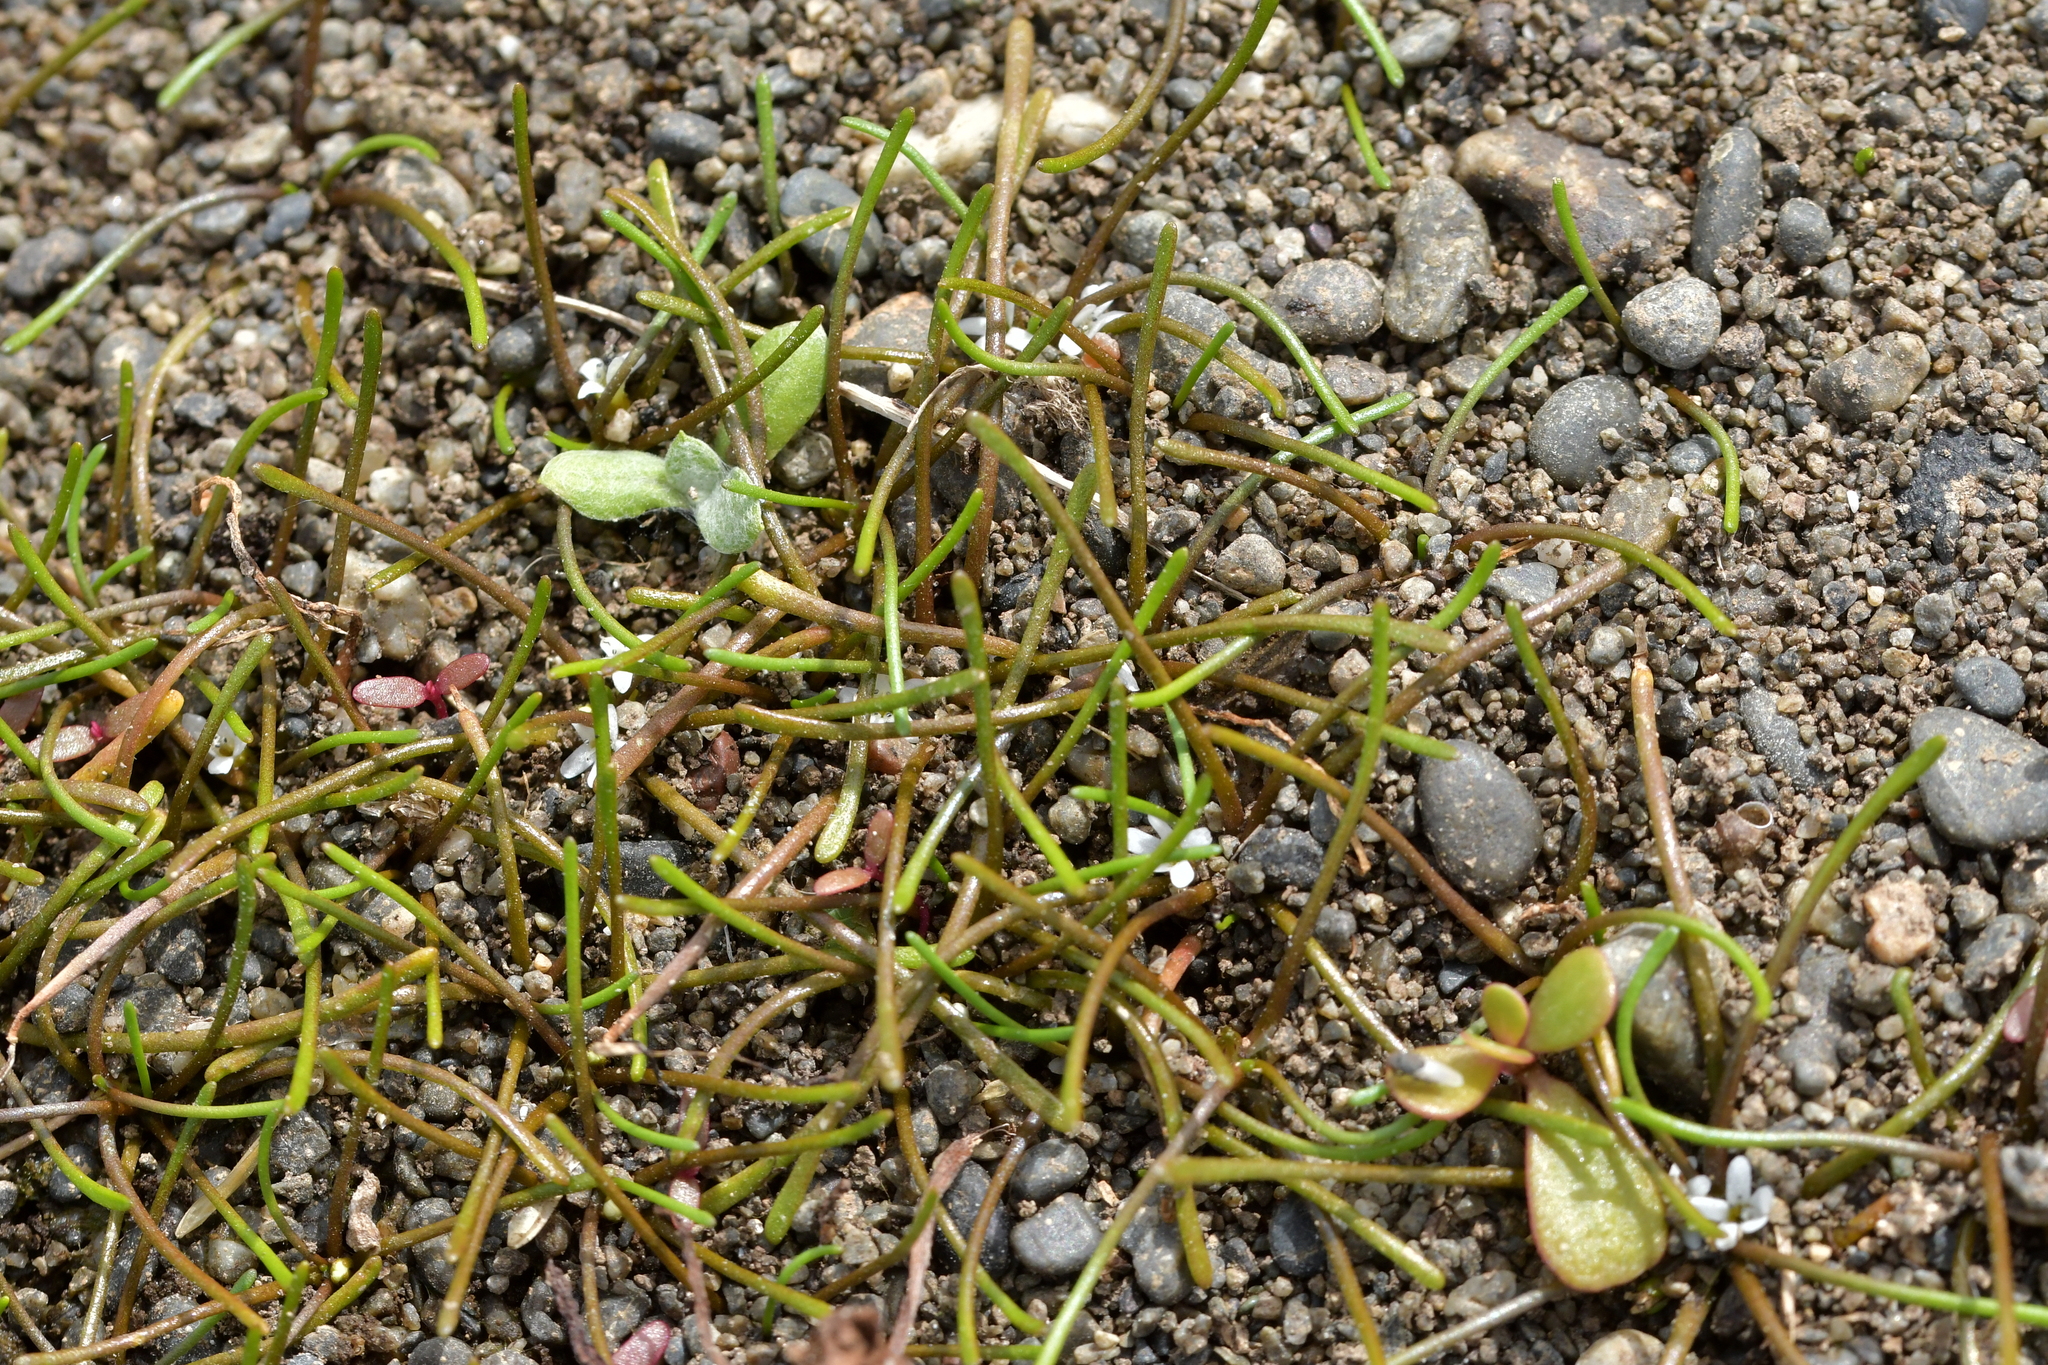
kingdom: Plantae
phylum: Tracheophyta
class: Magnoliopsida
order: Lamiales
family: Scrophulariaceae
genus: Limosella
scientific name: Limosella australis
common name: Welsh mudwort
